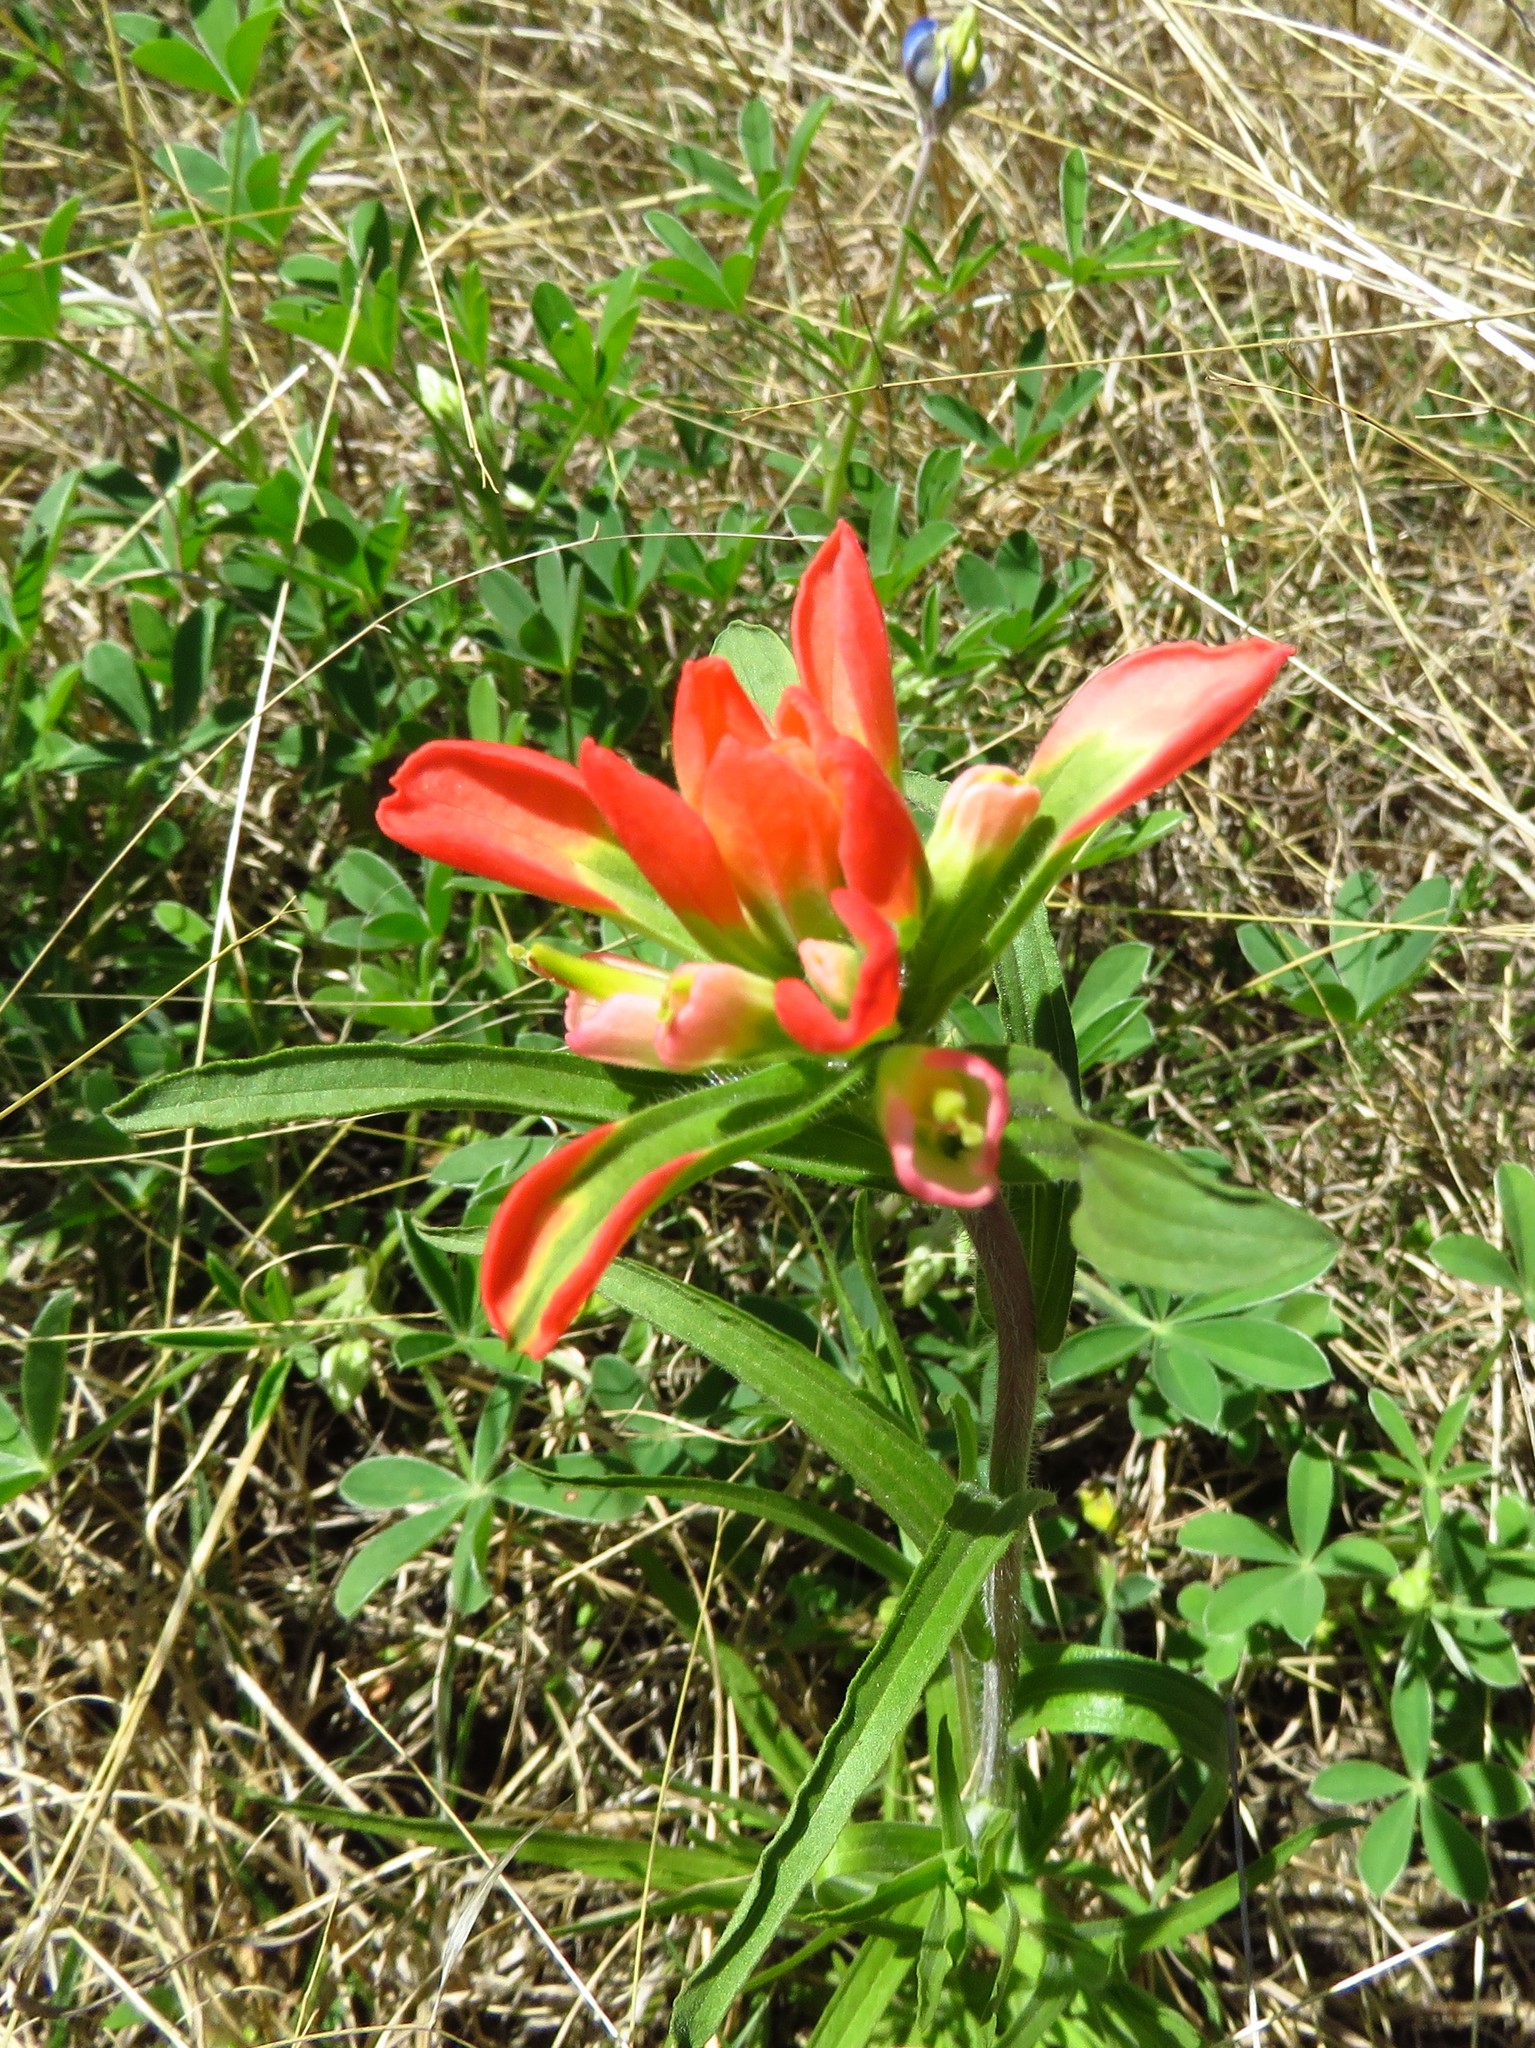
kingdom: Plantae
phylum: Tracheophyta
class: Magnoliopsida
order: Lamiales
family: Orobanchaceae
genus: Castilleja
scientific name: Castilleja indivisa
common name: Texas paintbrush
